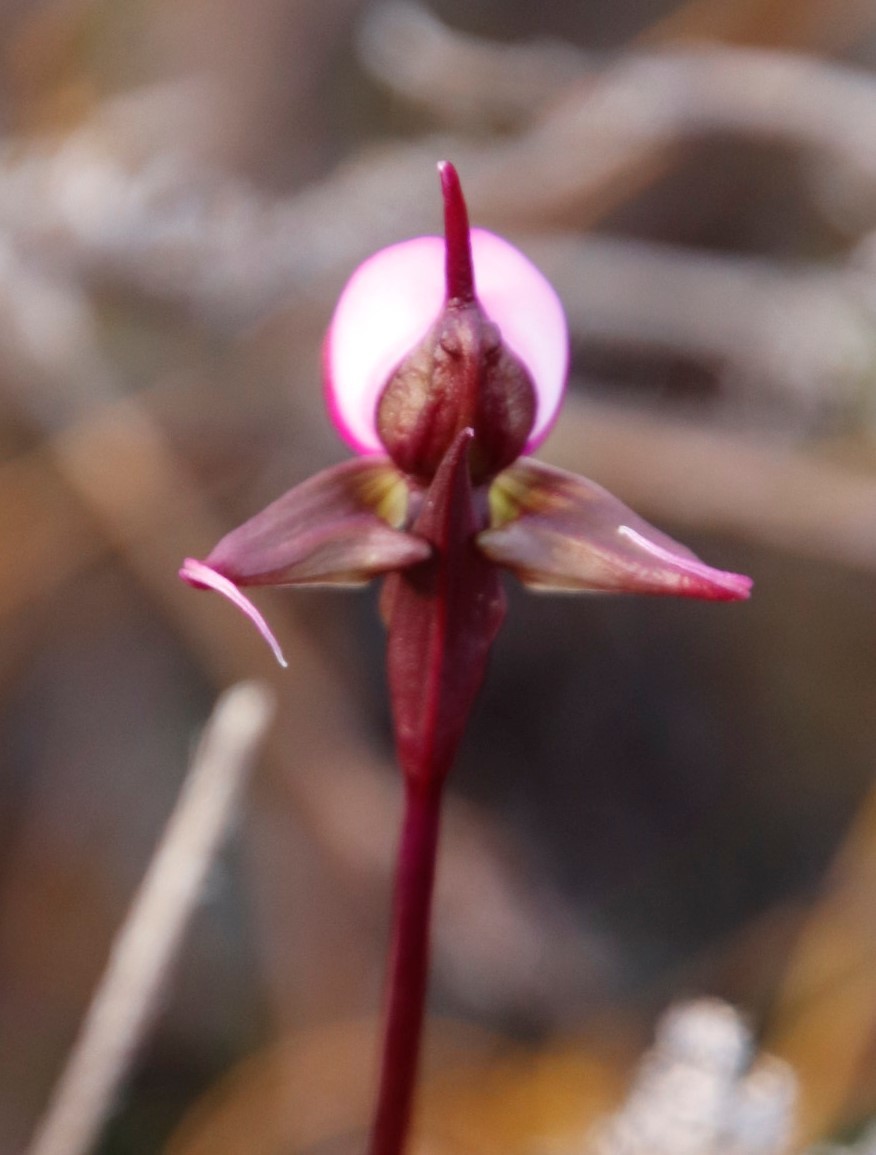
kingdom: Plantae
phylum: Tracheophyta
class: Liliopsida
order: Asparagales
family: Orchidaceae
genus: Disperis
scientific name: Disperis capensis
